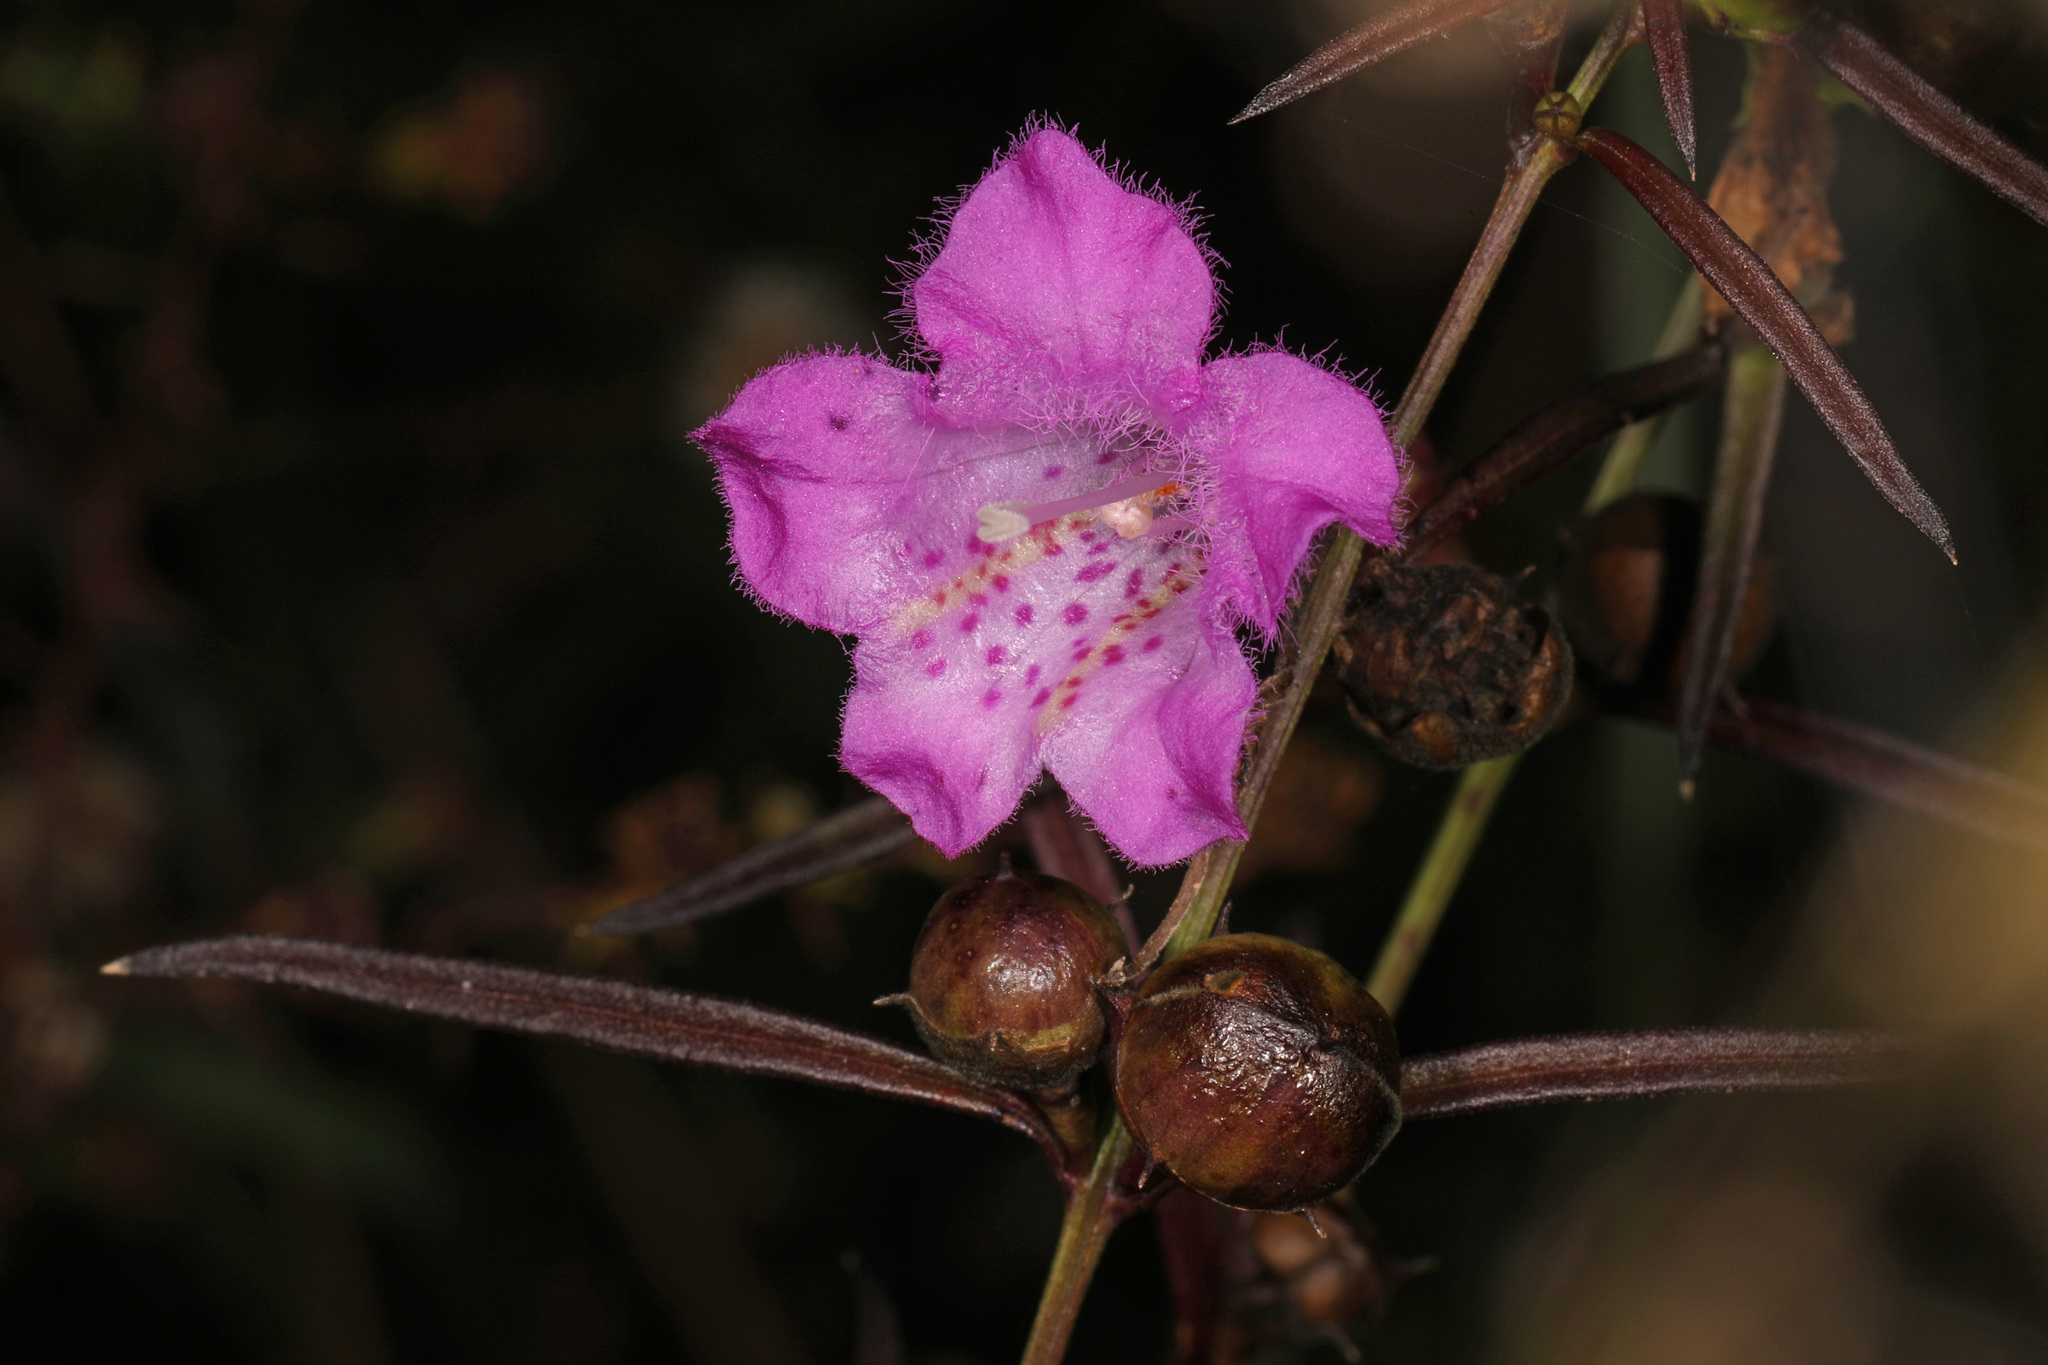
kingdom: Plantae
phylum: Tracheophyta
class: Magnoliopsida
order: Lamiales
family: Orobanchaceae
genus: Agalinis
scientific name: Agalinis purpurea
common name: Purple false foxglove
